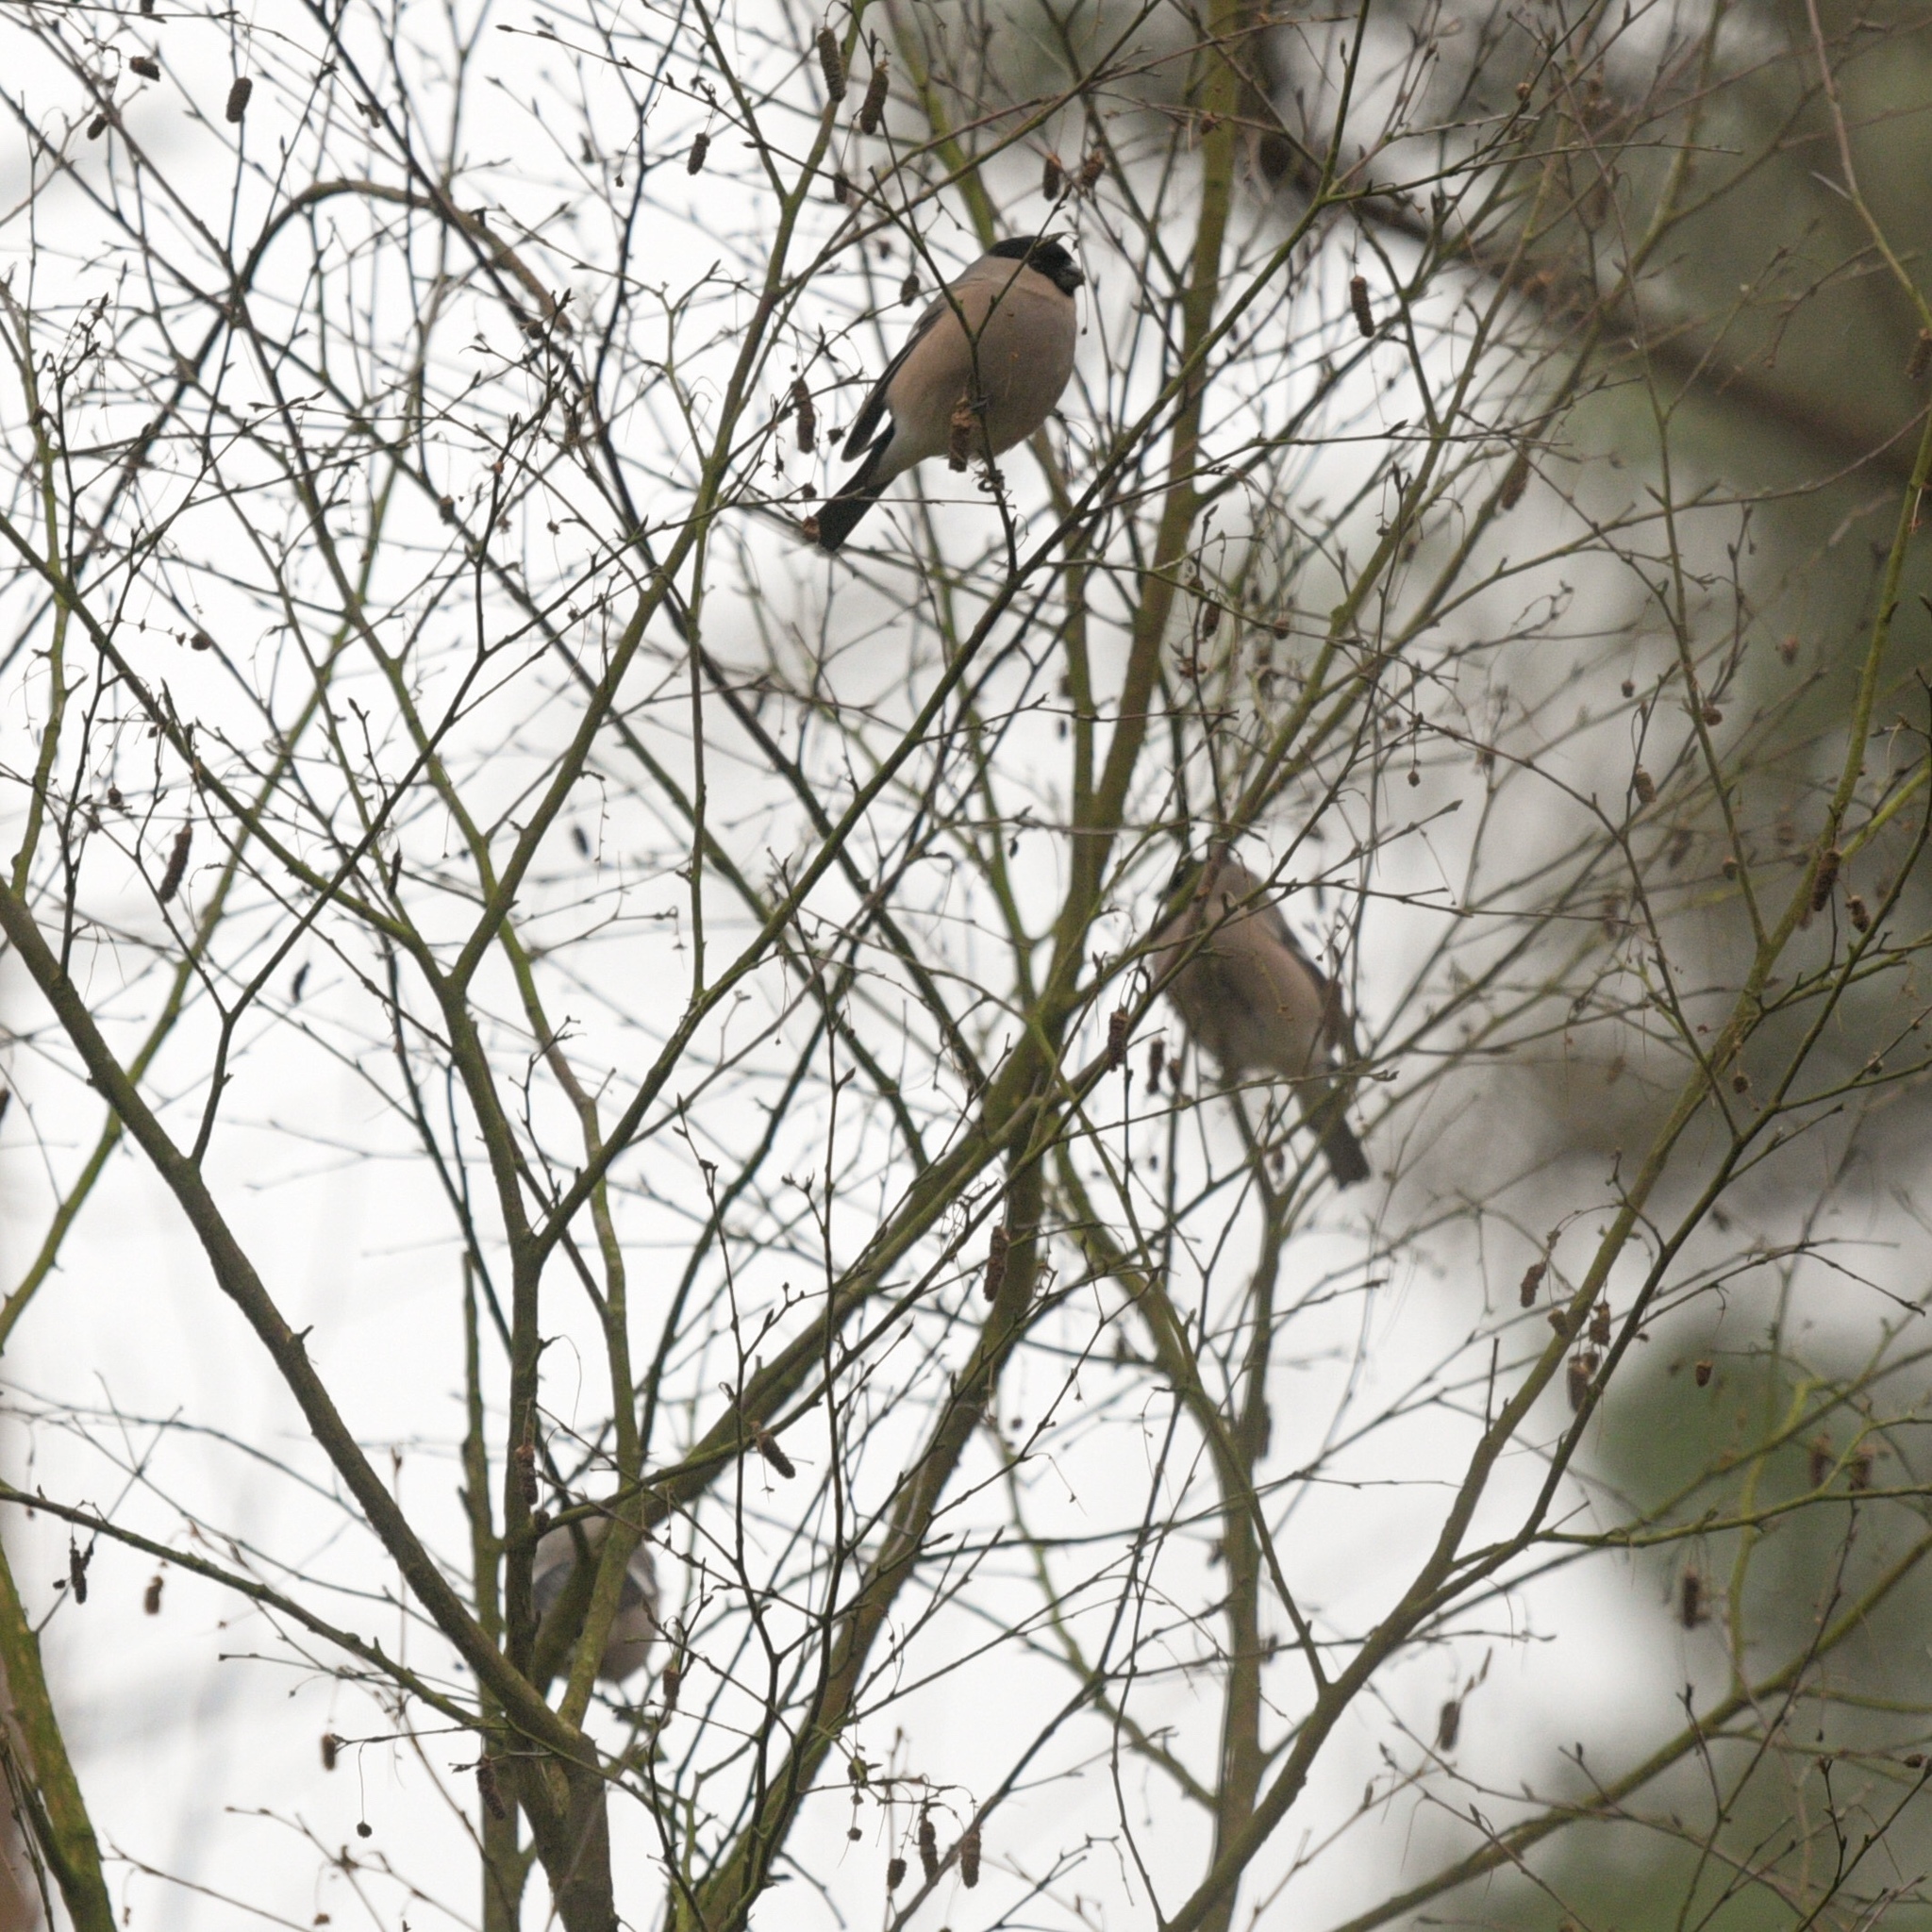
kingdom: Animalia
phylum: Chordata
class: Aves
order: Passeriformes
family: Fringillidae
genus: Pyrrhula
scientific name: Pyrrhula pyrrhula
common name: Eurasian bullfinch
